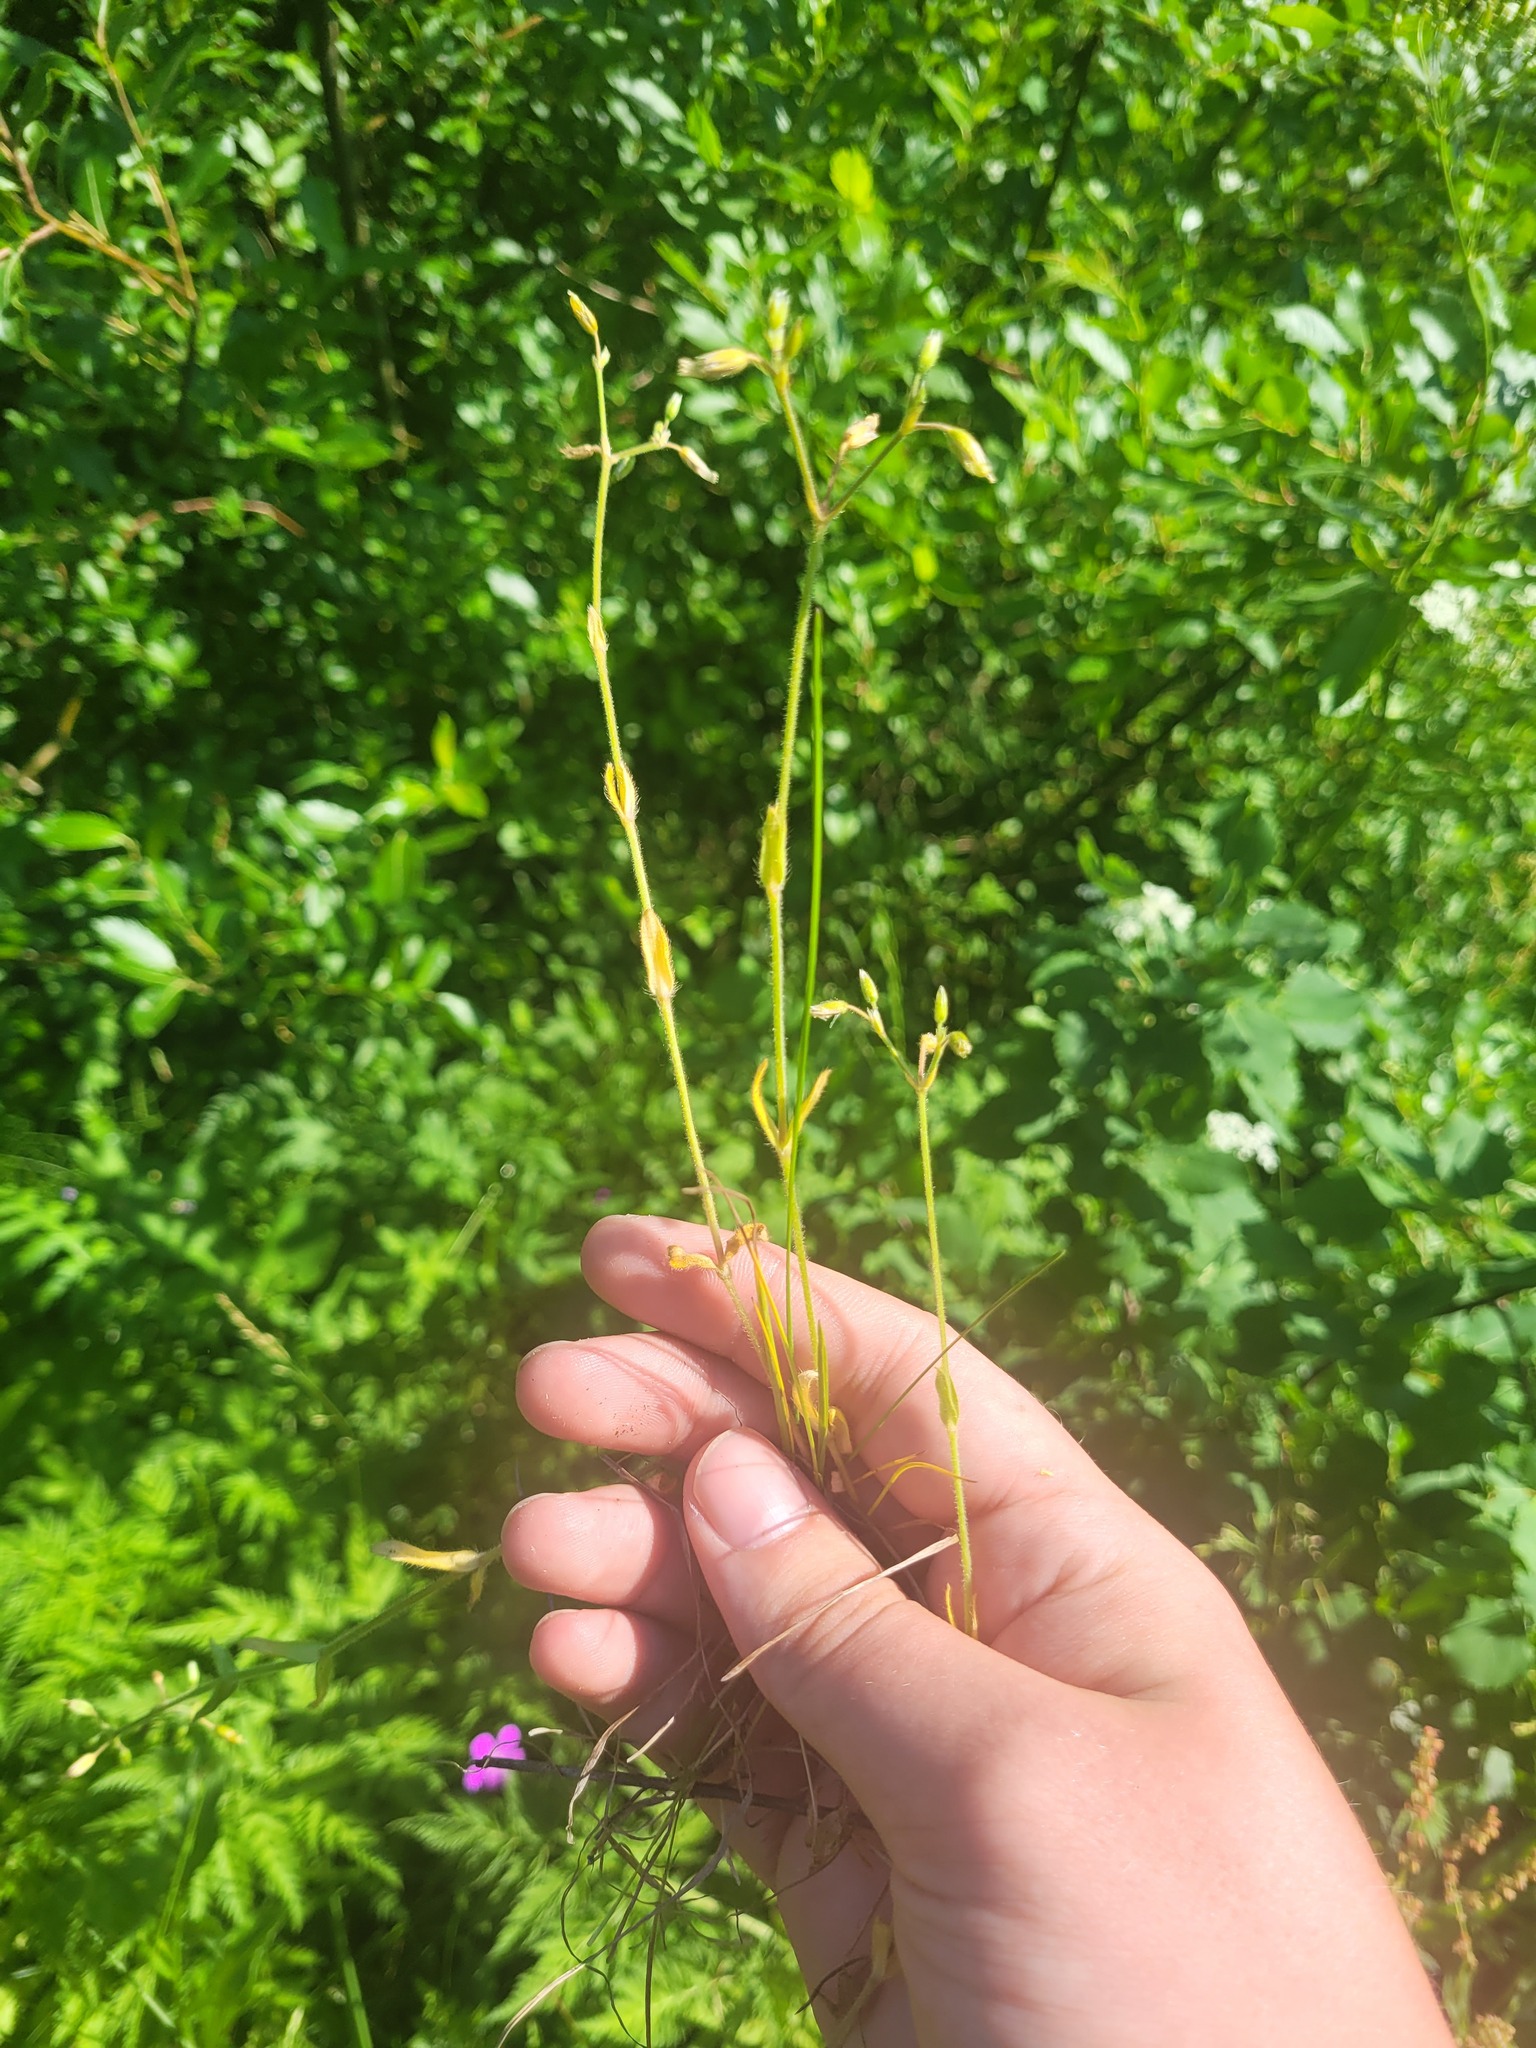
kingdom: Plantae
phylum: Tracheophyta
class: Magnoliopsida
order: Caryophyllales
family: Caryophyllaceae
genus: Cerastium
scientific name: Cerastium holosteoides
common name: Big chickweed
